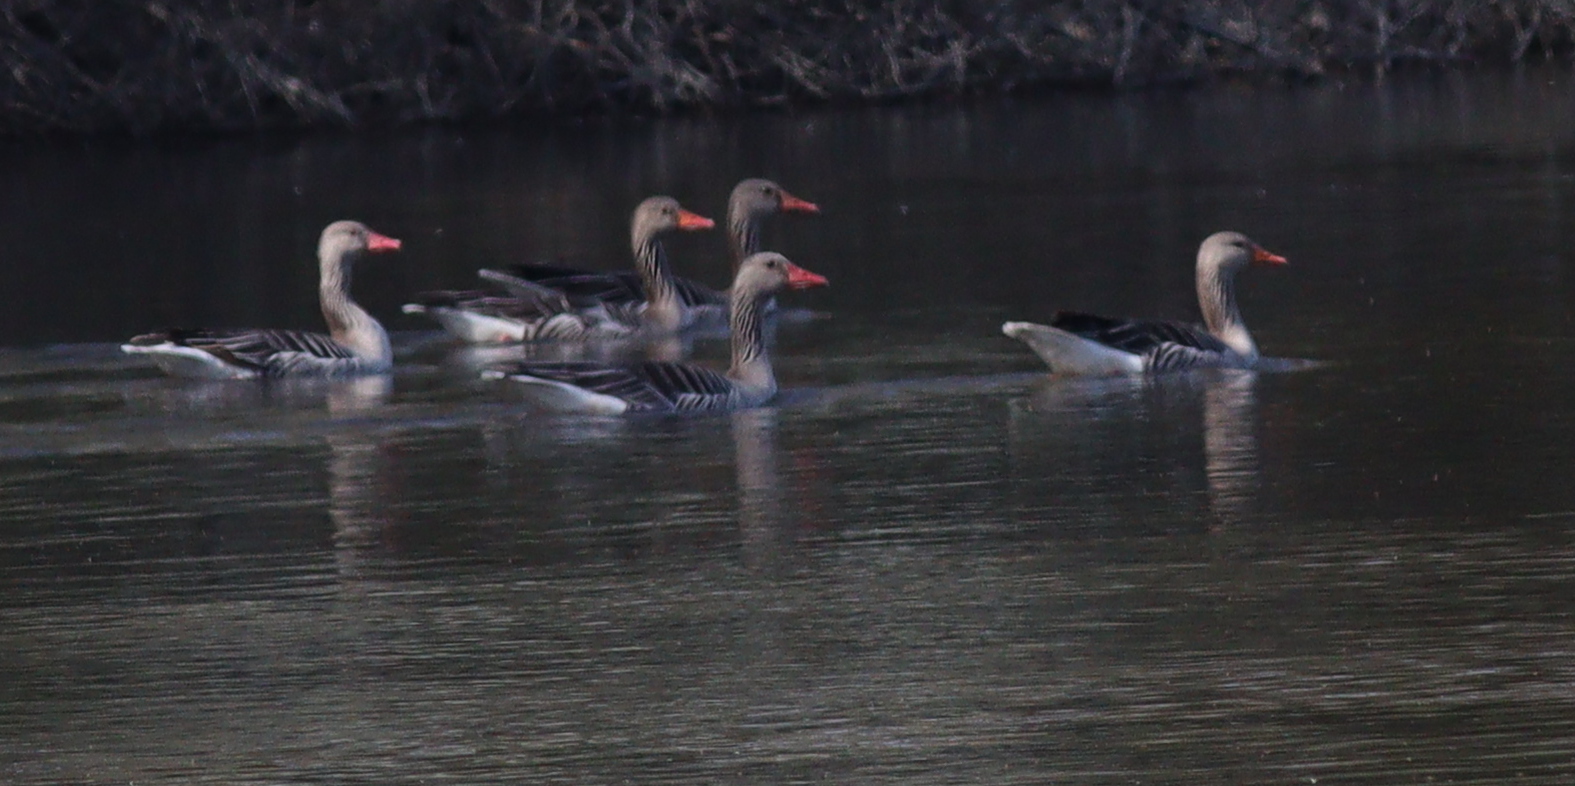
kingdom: Animalia
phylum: Chordata
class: Aves
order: Anseriformes
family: Anatidae
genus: Anser
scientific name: Anser anser
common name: Greylag goose
